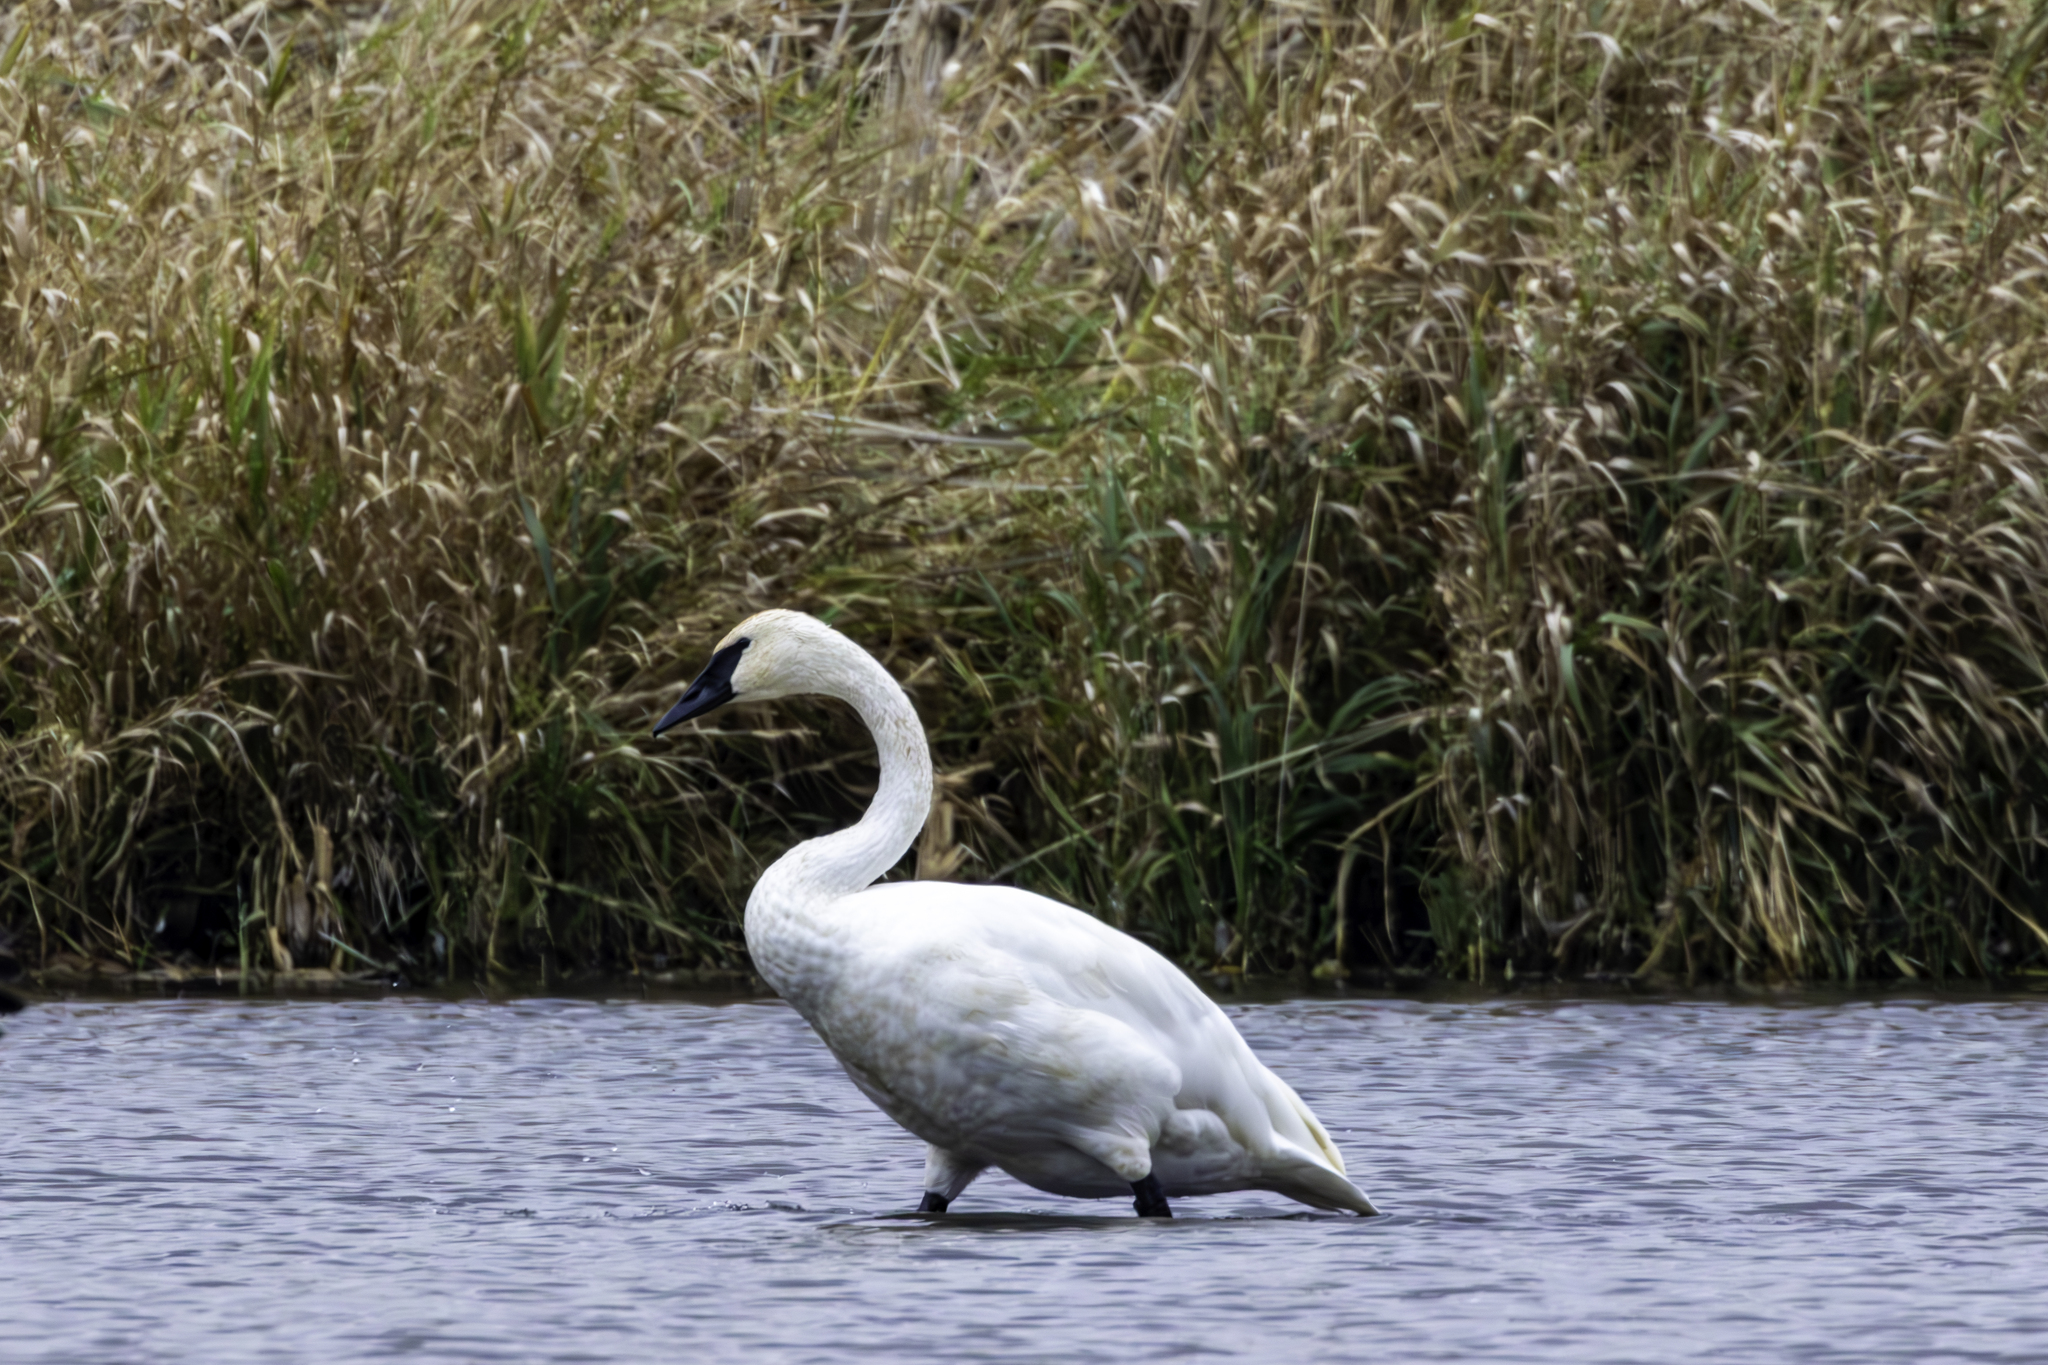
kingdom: Animalia
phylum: Chordata
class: Aves
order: Anseriformes
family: Anatidae
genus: Cygnus
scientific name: Cygnus buccinator
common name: Trumpeter swan
